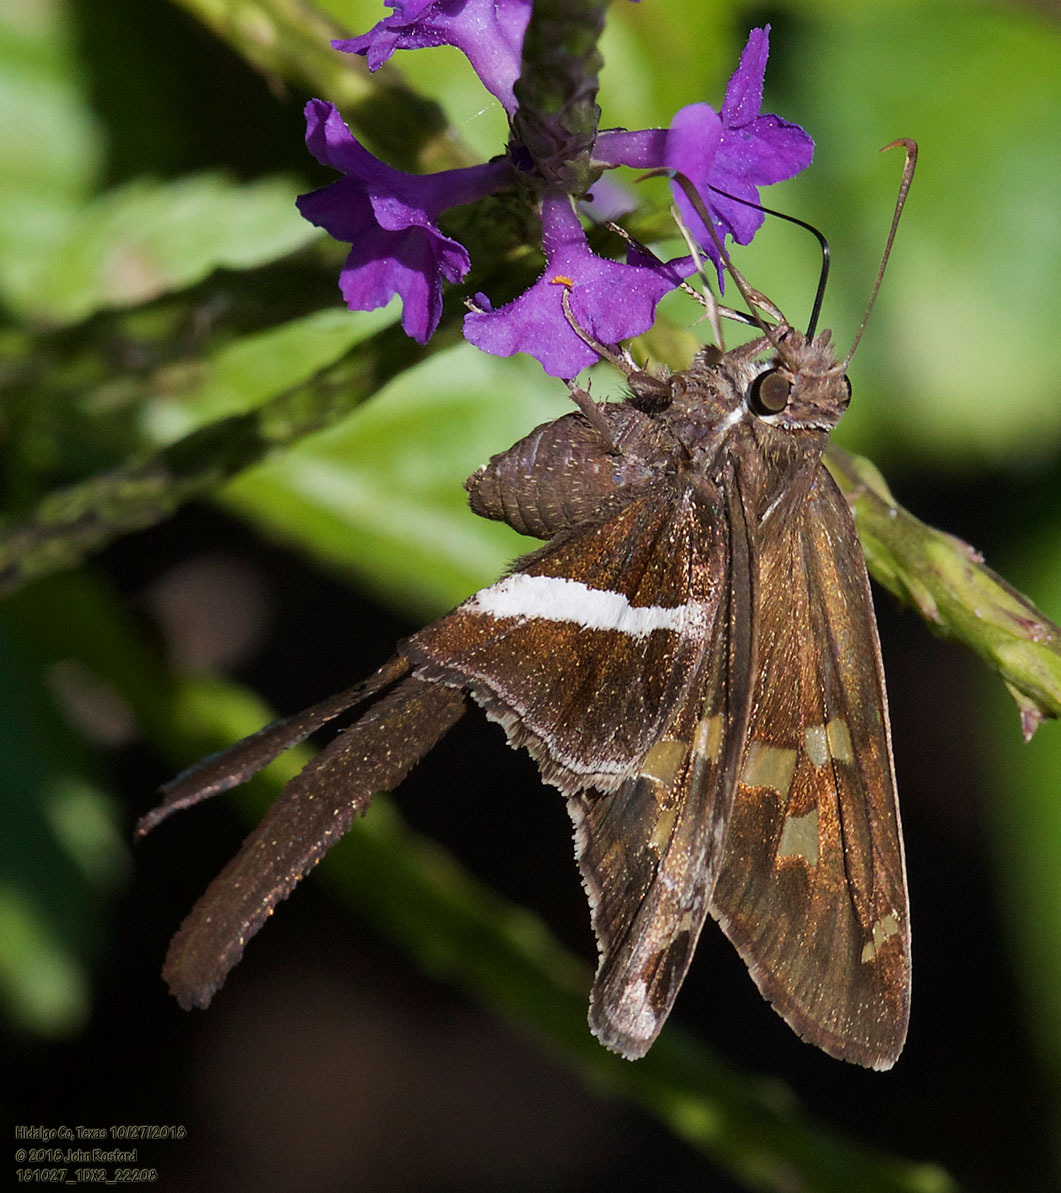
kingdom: Animalia
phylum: Arthropoda
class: Insecta
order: Lepidoptera
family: Hesperiidae
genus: Chioides
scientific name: Chioides catillus
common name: Silverbanded skipper
